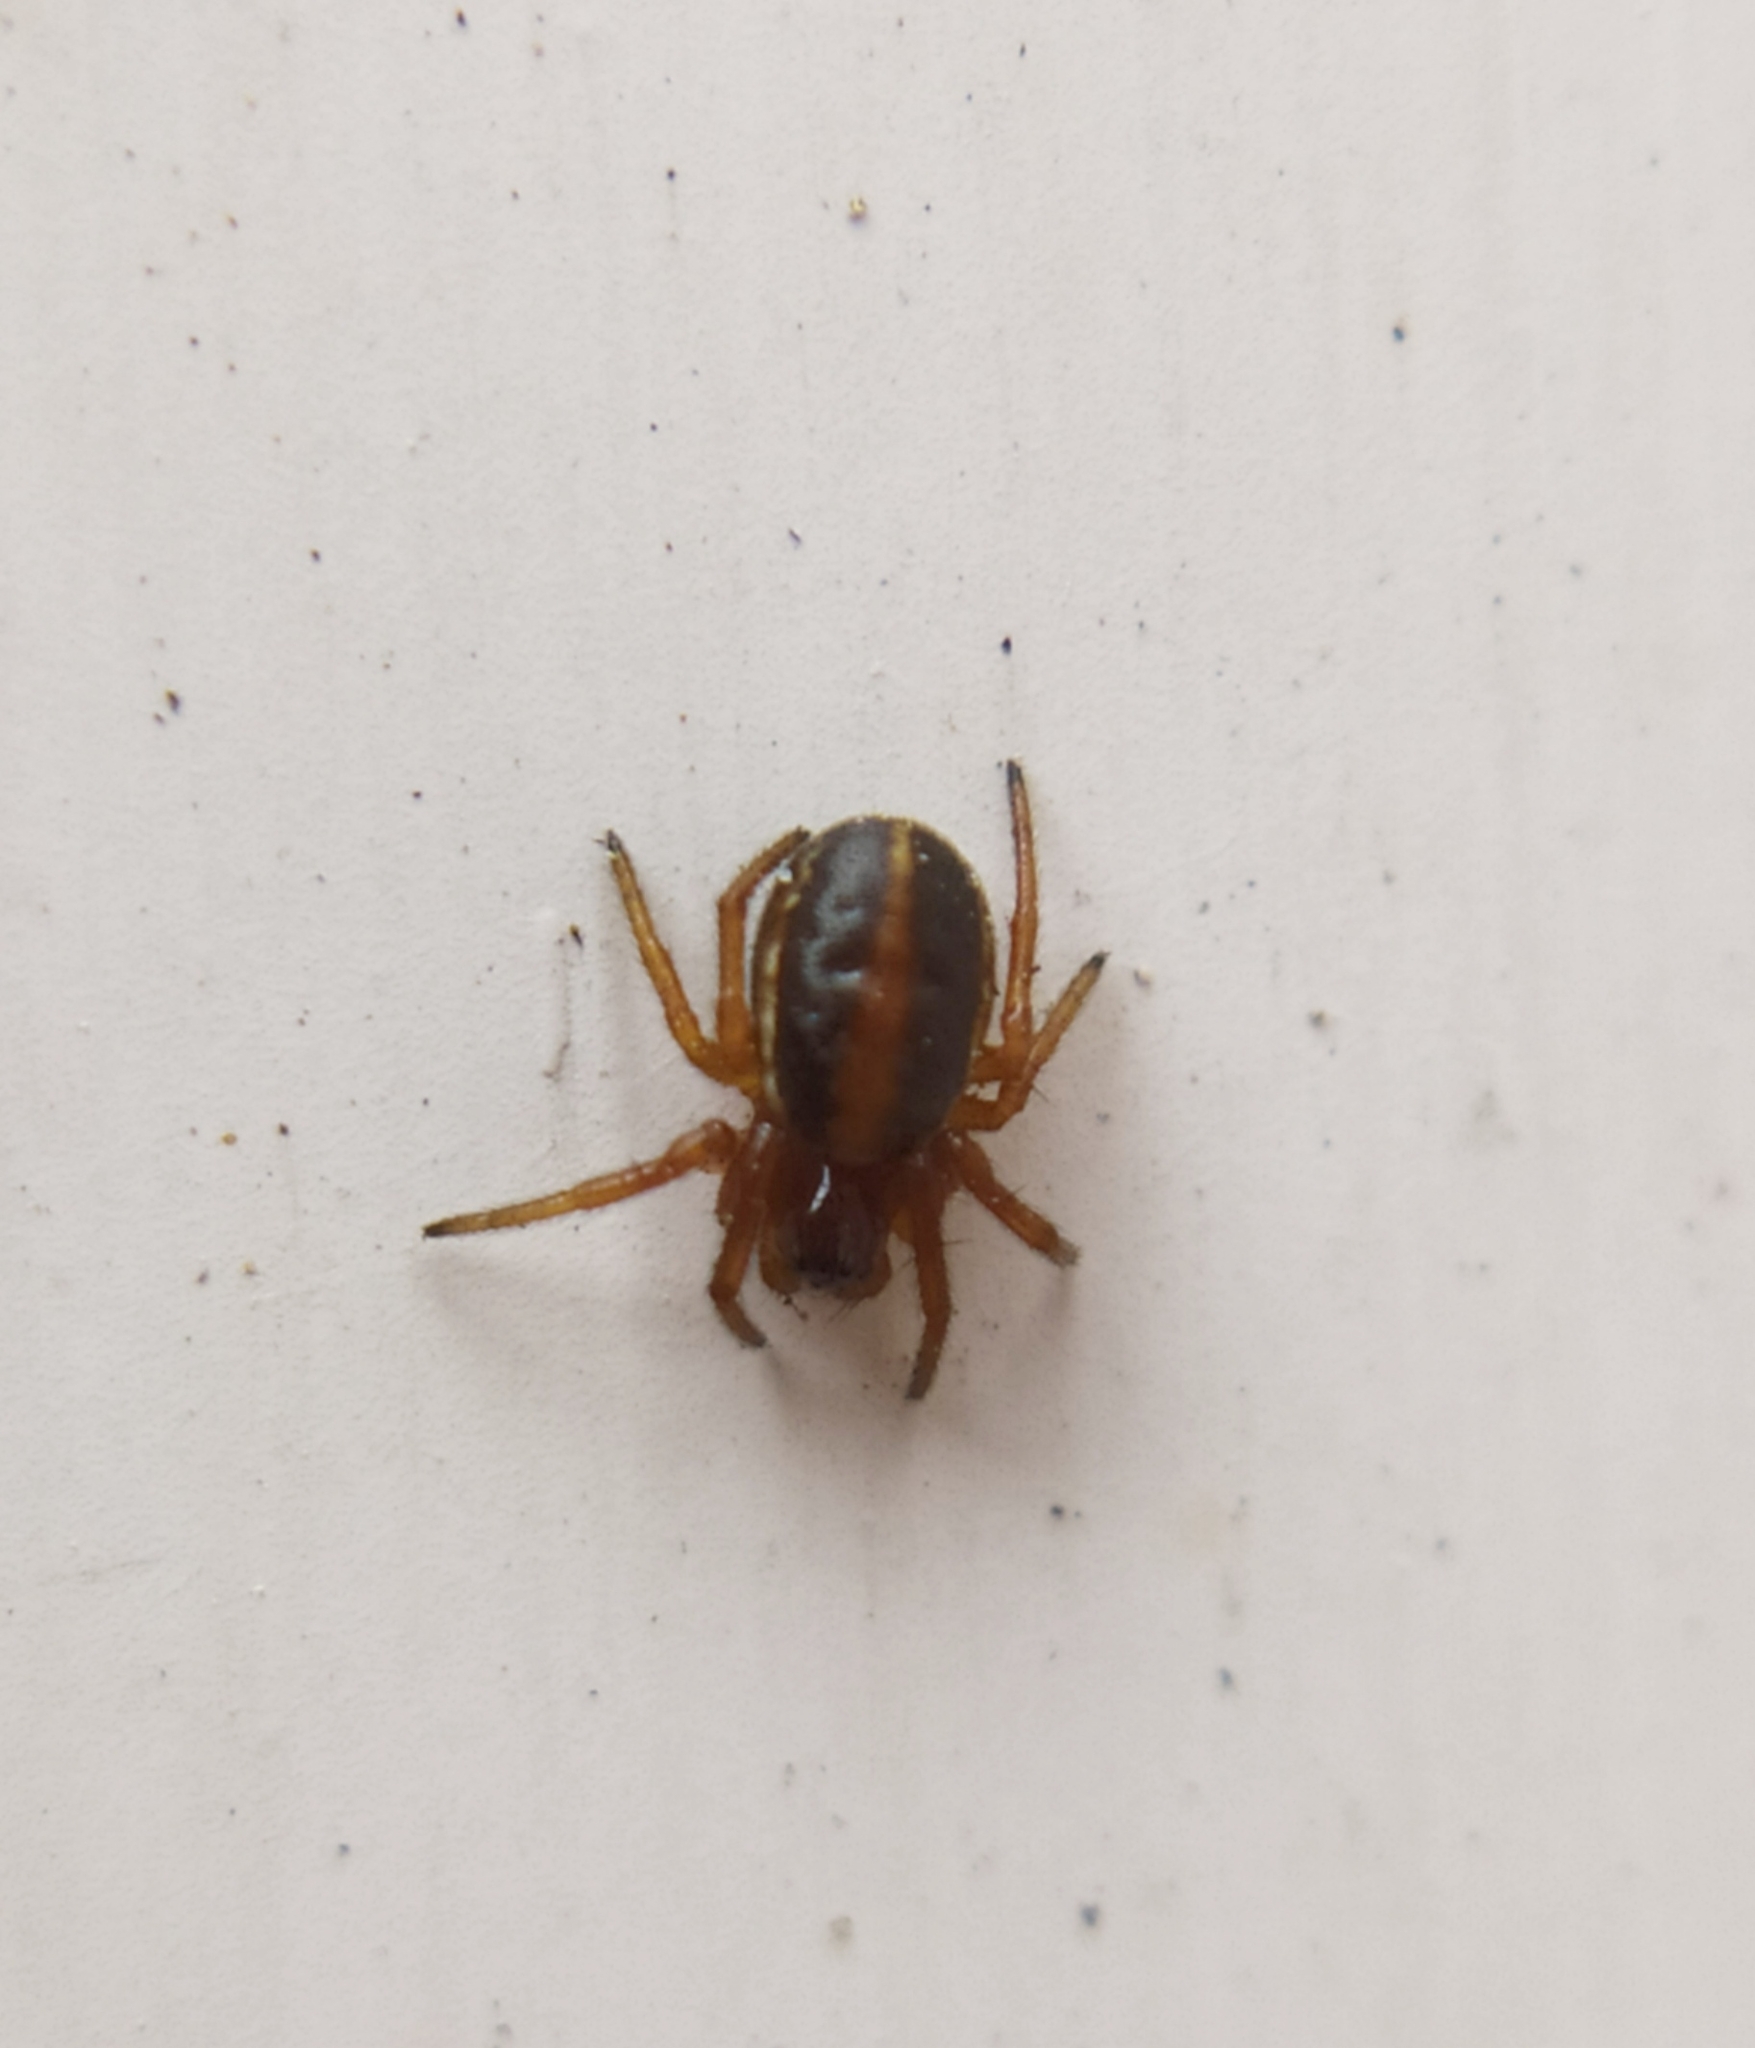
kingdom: Animalia
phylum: Arthropoda
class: Arachnida
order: Araneae
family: Araneidae
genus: Hypsosinga
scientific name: Hypsosinga sanguinea
